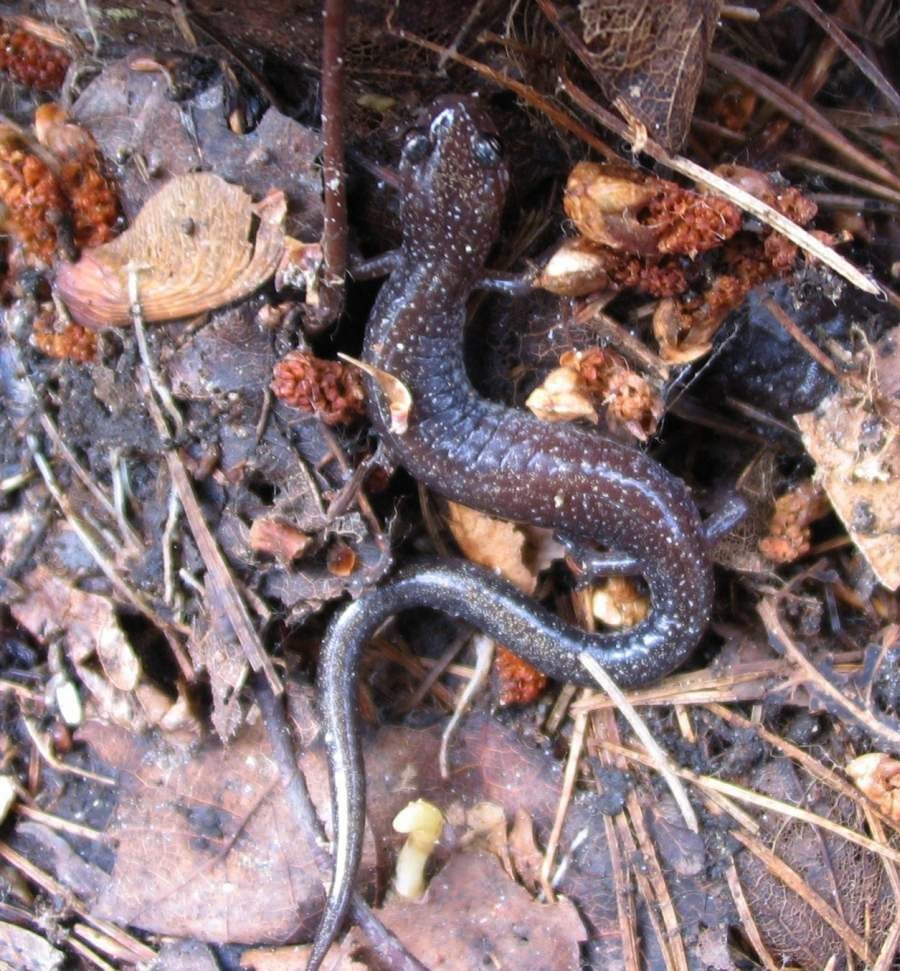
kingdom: Animalia
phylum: Chordata
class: Amphibia
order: Caudata
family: Plethodontidae
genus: Plethodon
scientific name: Plethodon cinereus
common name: Redback salamander
